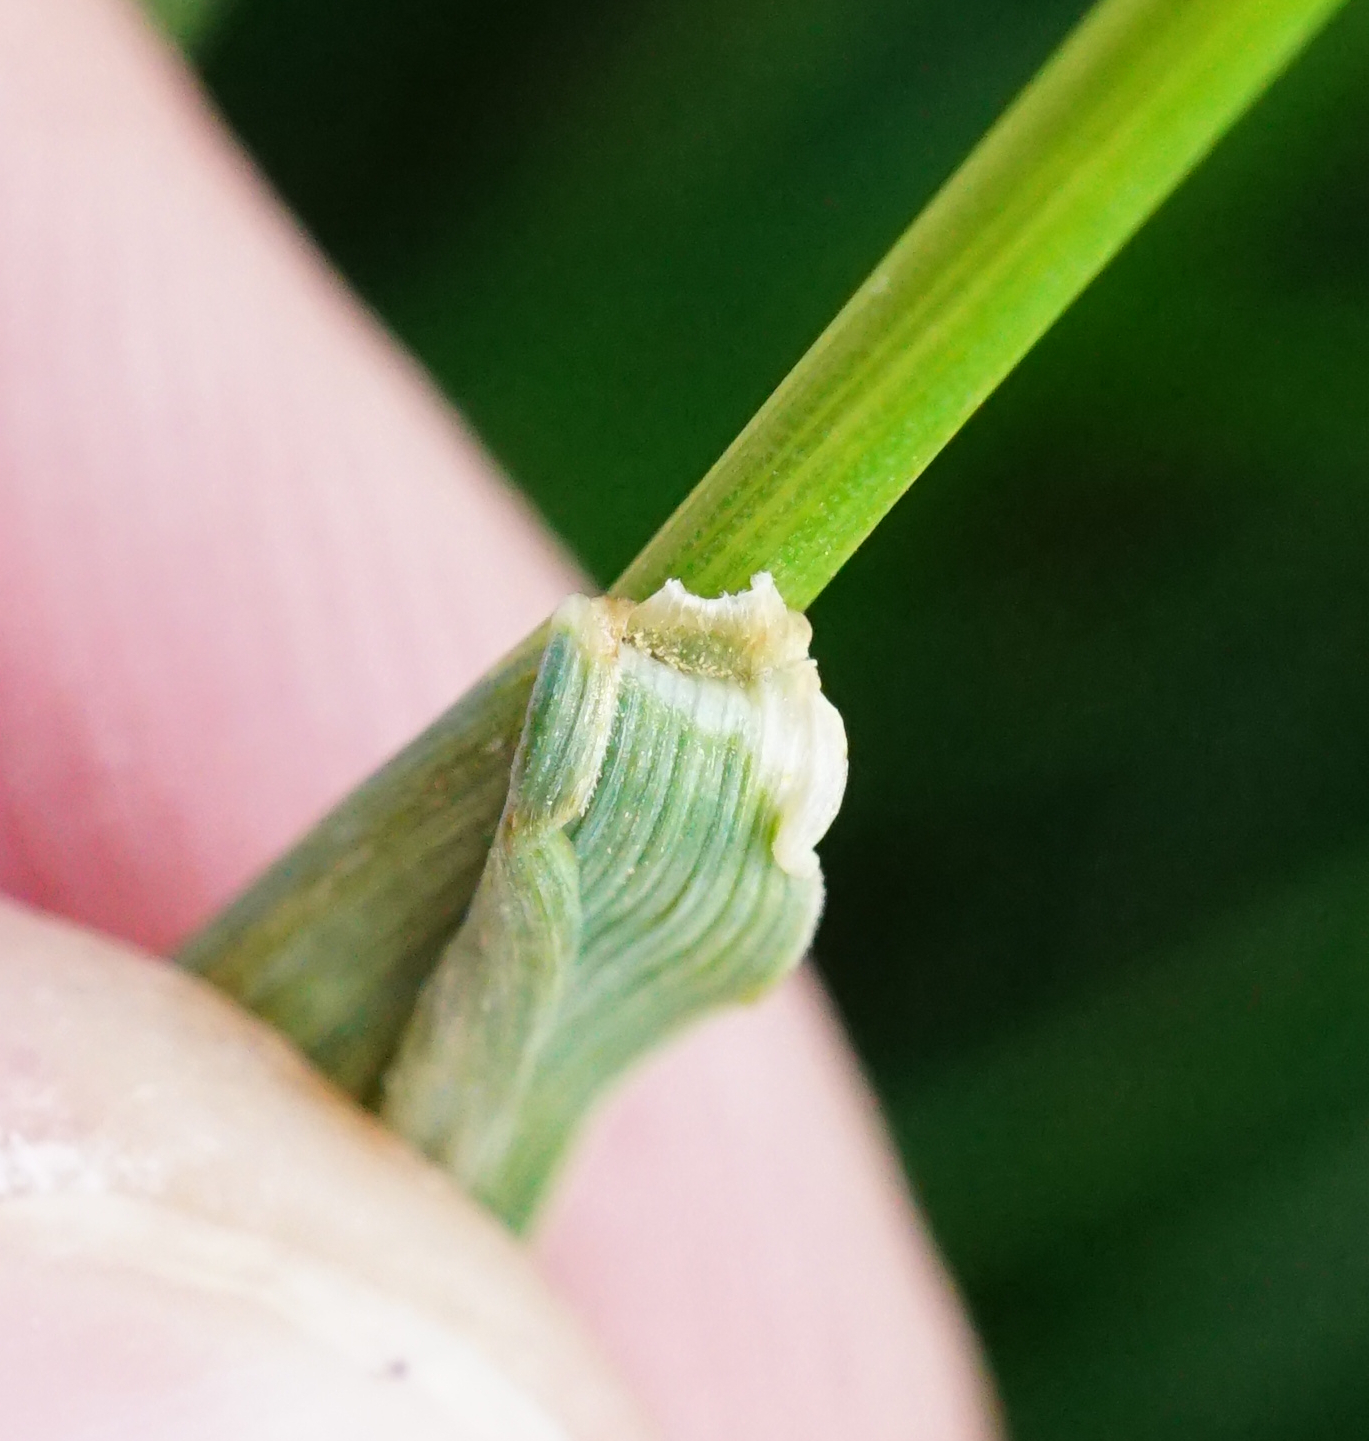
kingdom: Plantae
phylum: Tracheophyta
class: Liliopsida
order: Poales
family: Poaceae
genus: Alopecurus
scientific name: Alopecurus pratensis
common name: Meadow foxtail
